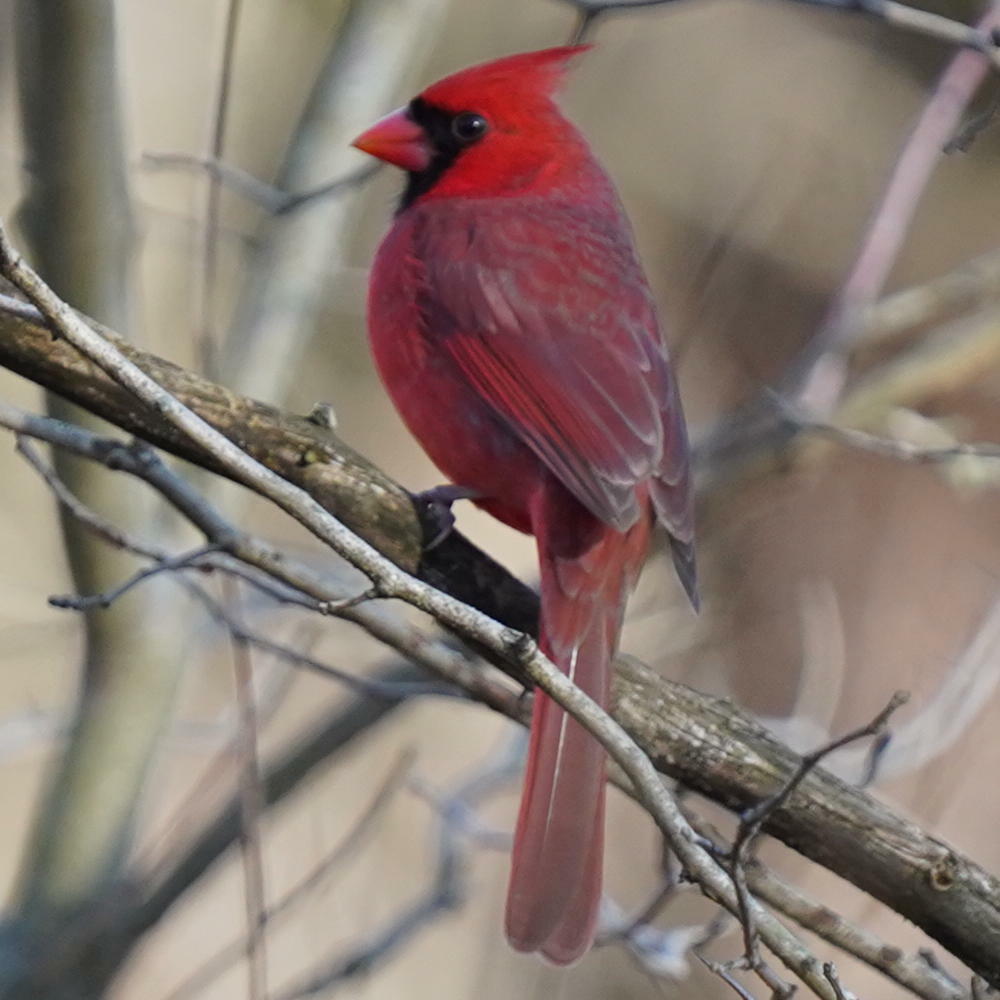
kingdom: Animalia
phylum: Chordata
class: Aves
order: Passeriformes
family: Cardinalidae
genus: Cardinalis
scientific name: Cardinalis cardinalis
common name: Northern cardinal
